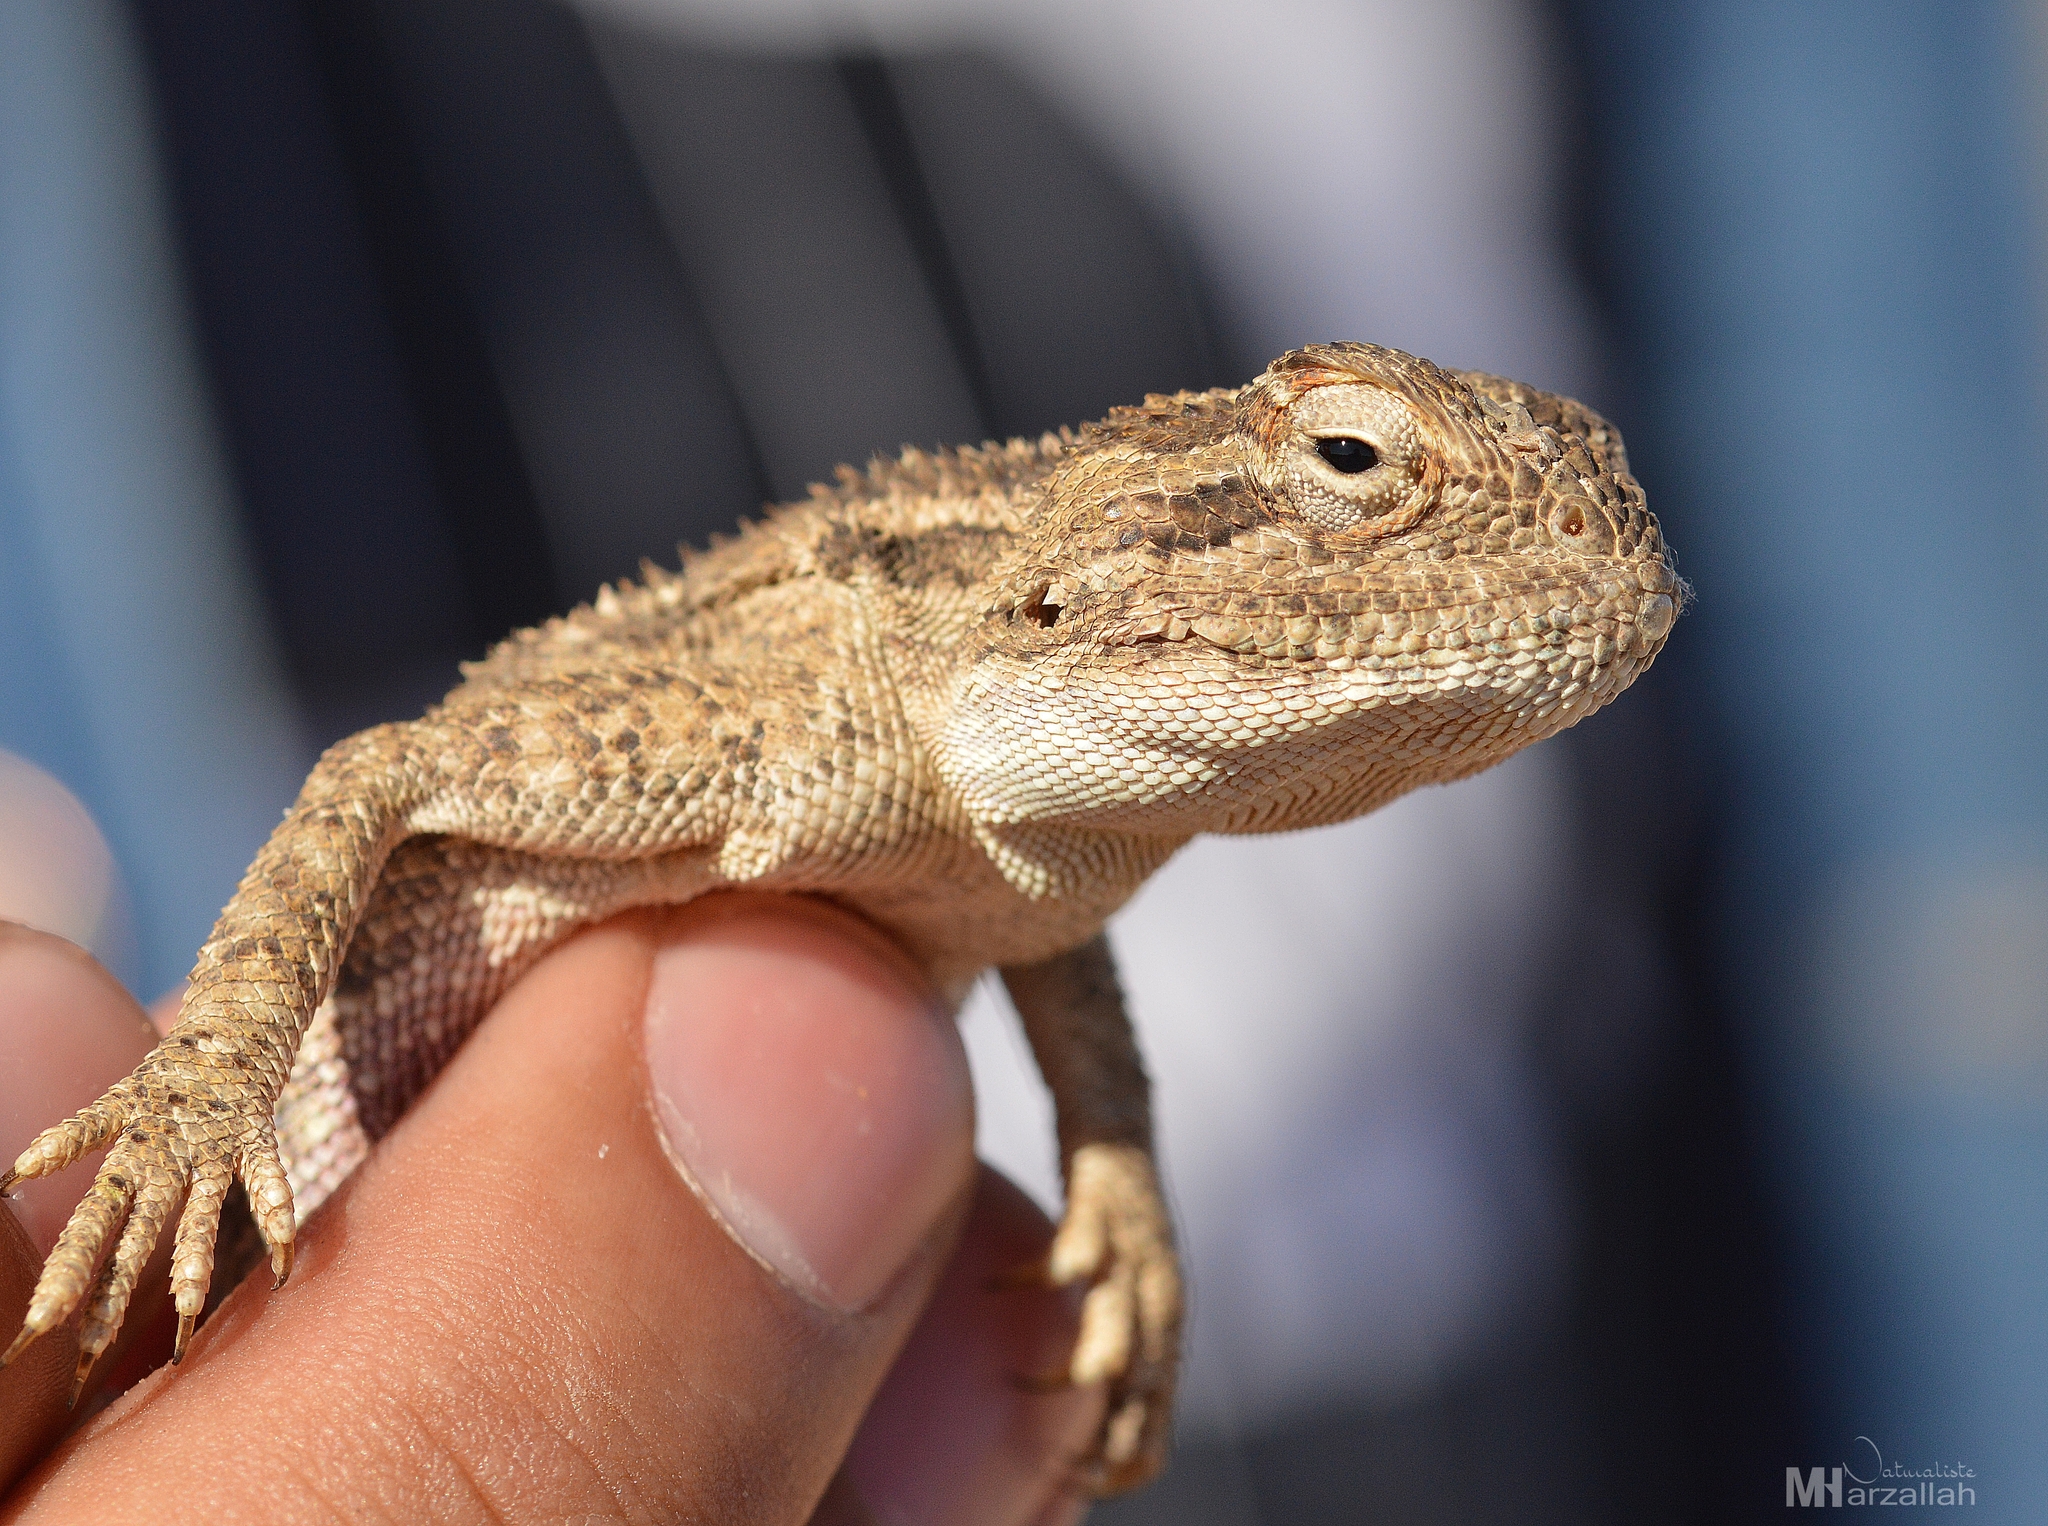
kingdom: Animalia
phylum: Chordata
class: Squamata
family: Agamidae
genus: Trapelus
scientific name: Trapelus mutabilis
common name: Desert agama
